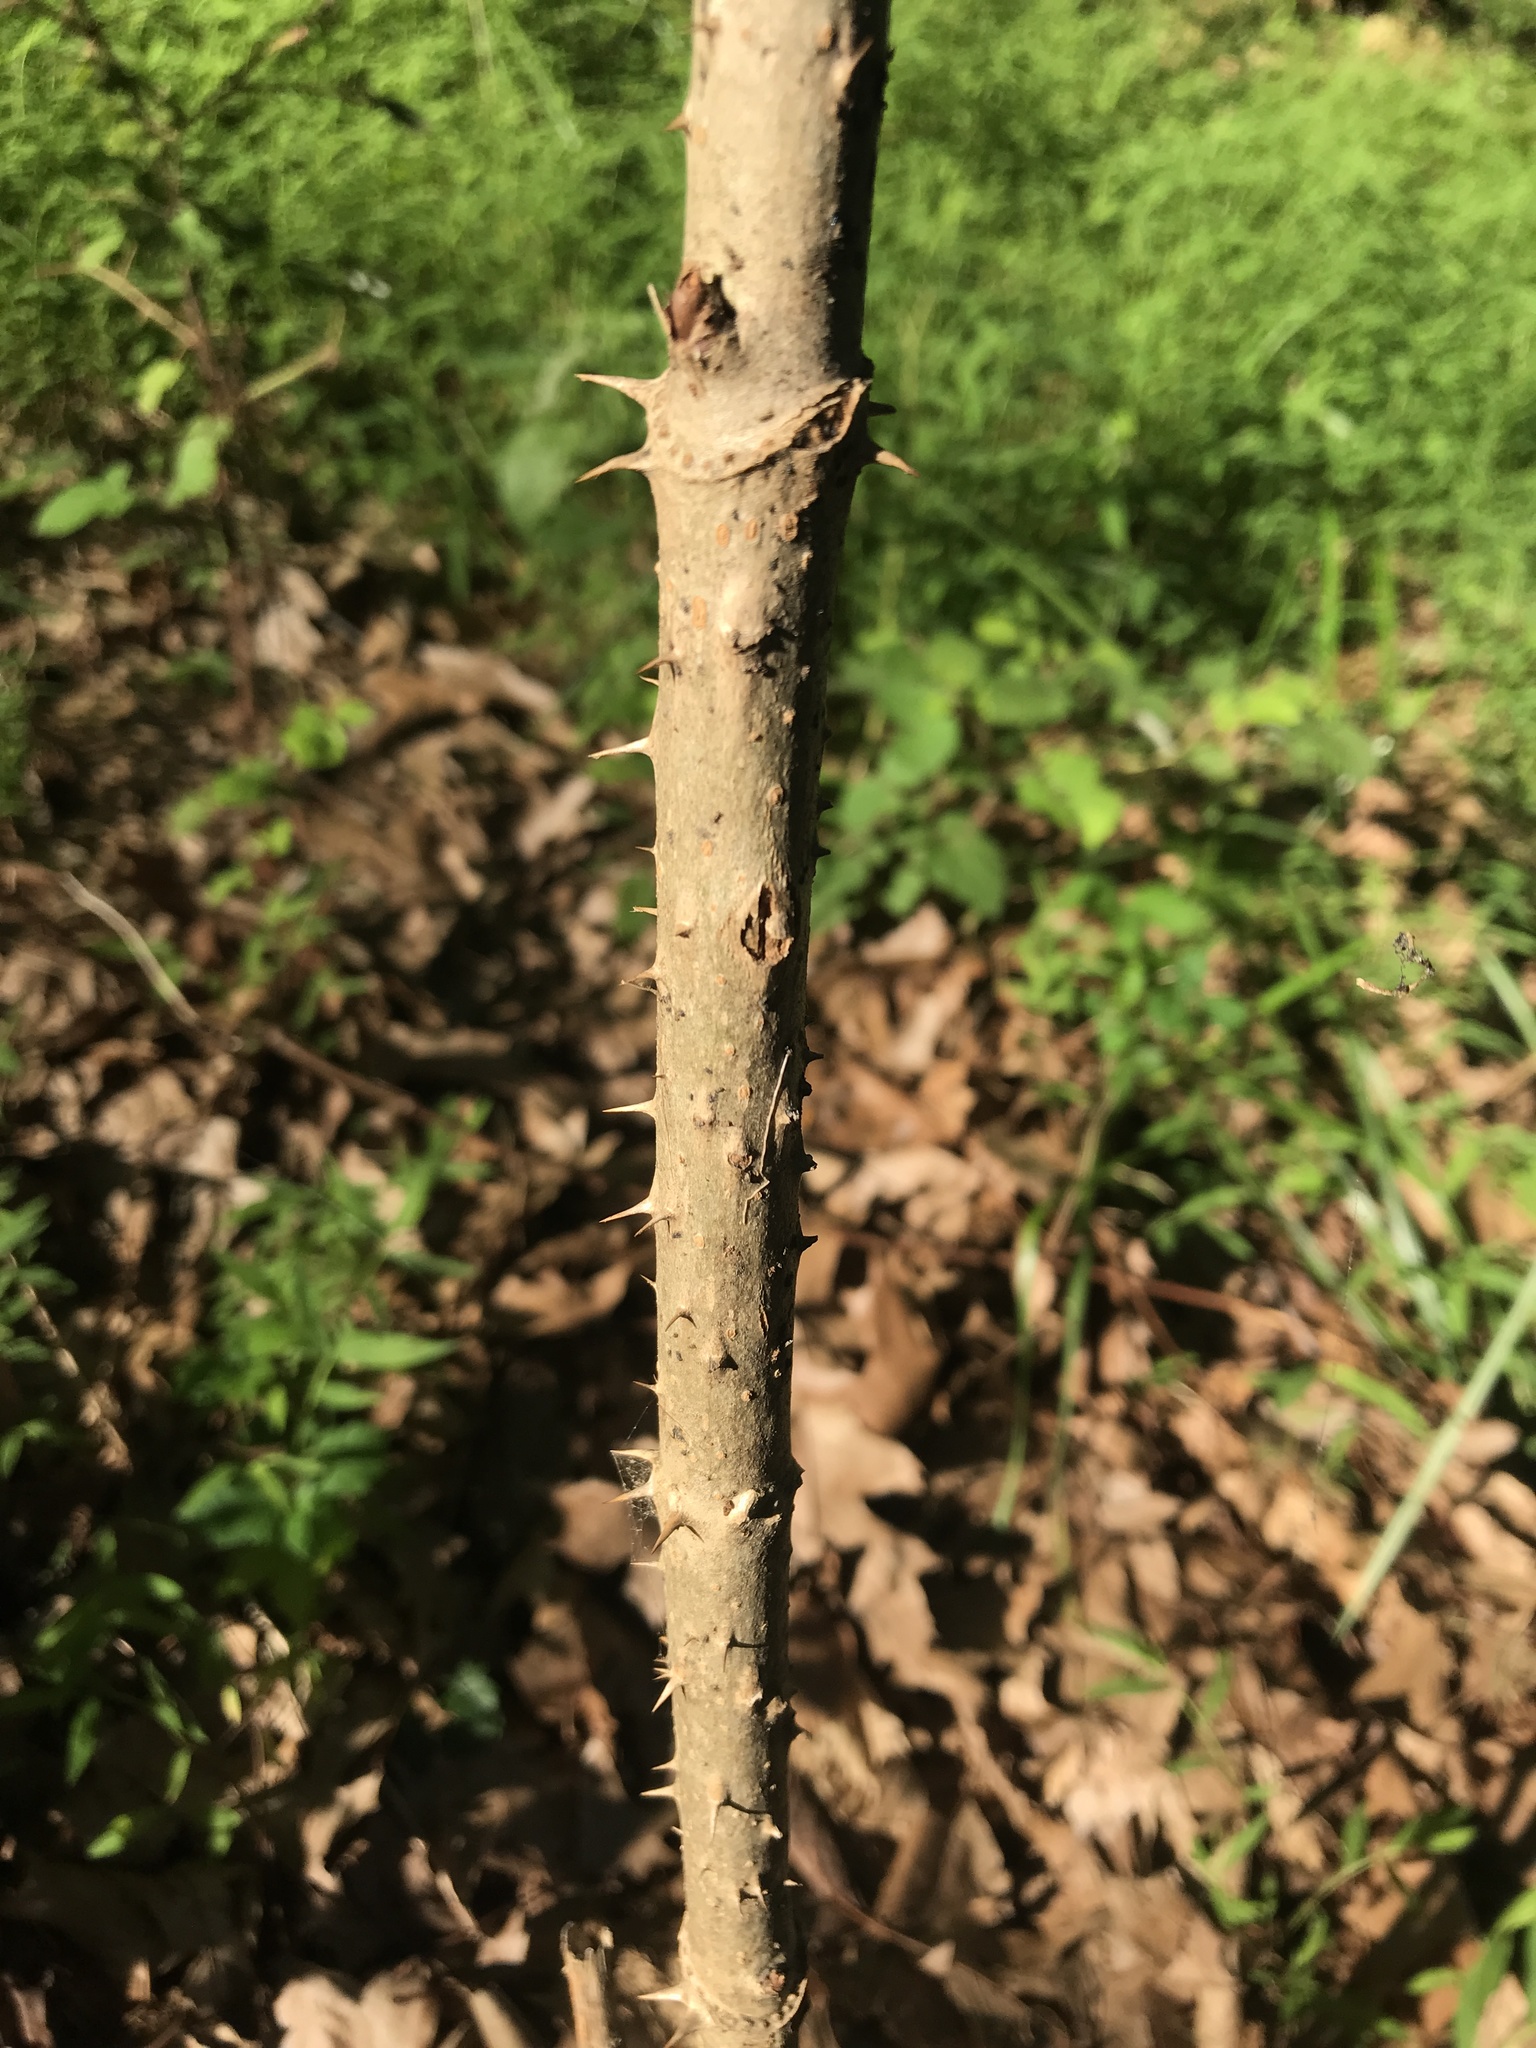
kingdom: Plantae
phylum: Tracheophyta
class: Magnoliopsida
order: Apiales
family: Araliaceae
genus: Aralia
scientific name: Aralia elata
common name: Japanese angelica-tree
